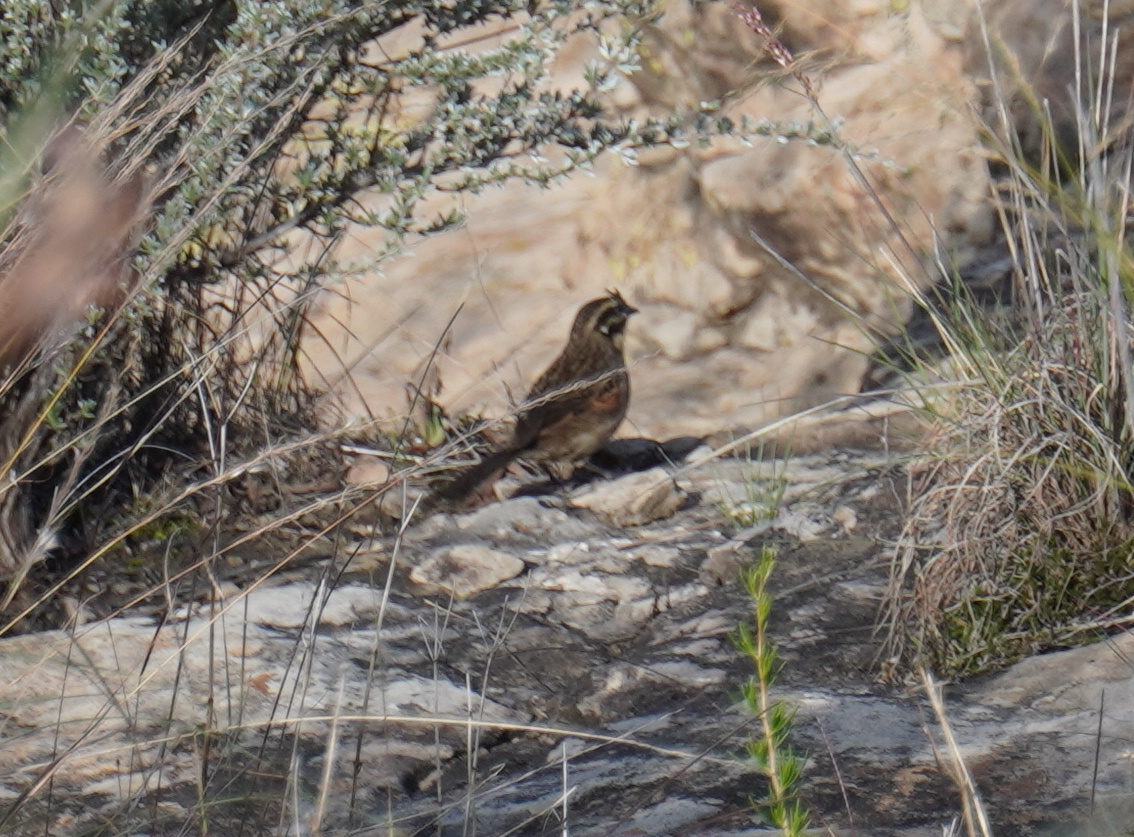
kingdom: Animalia
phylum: Chordata
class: Aves
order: Passeriformes
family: Emberizidae
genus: Emberiza
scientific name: Emberiza capensis
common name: Cape bunting
